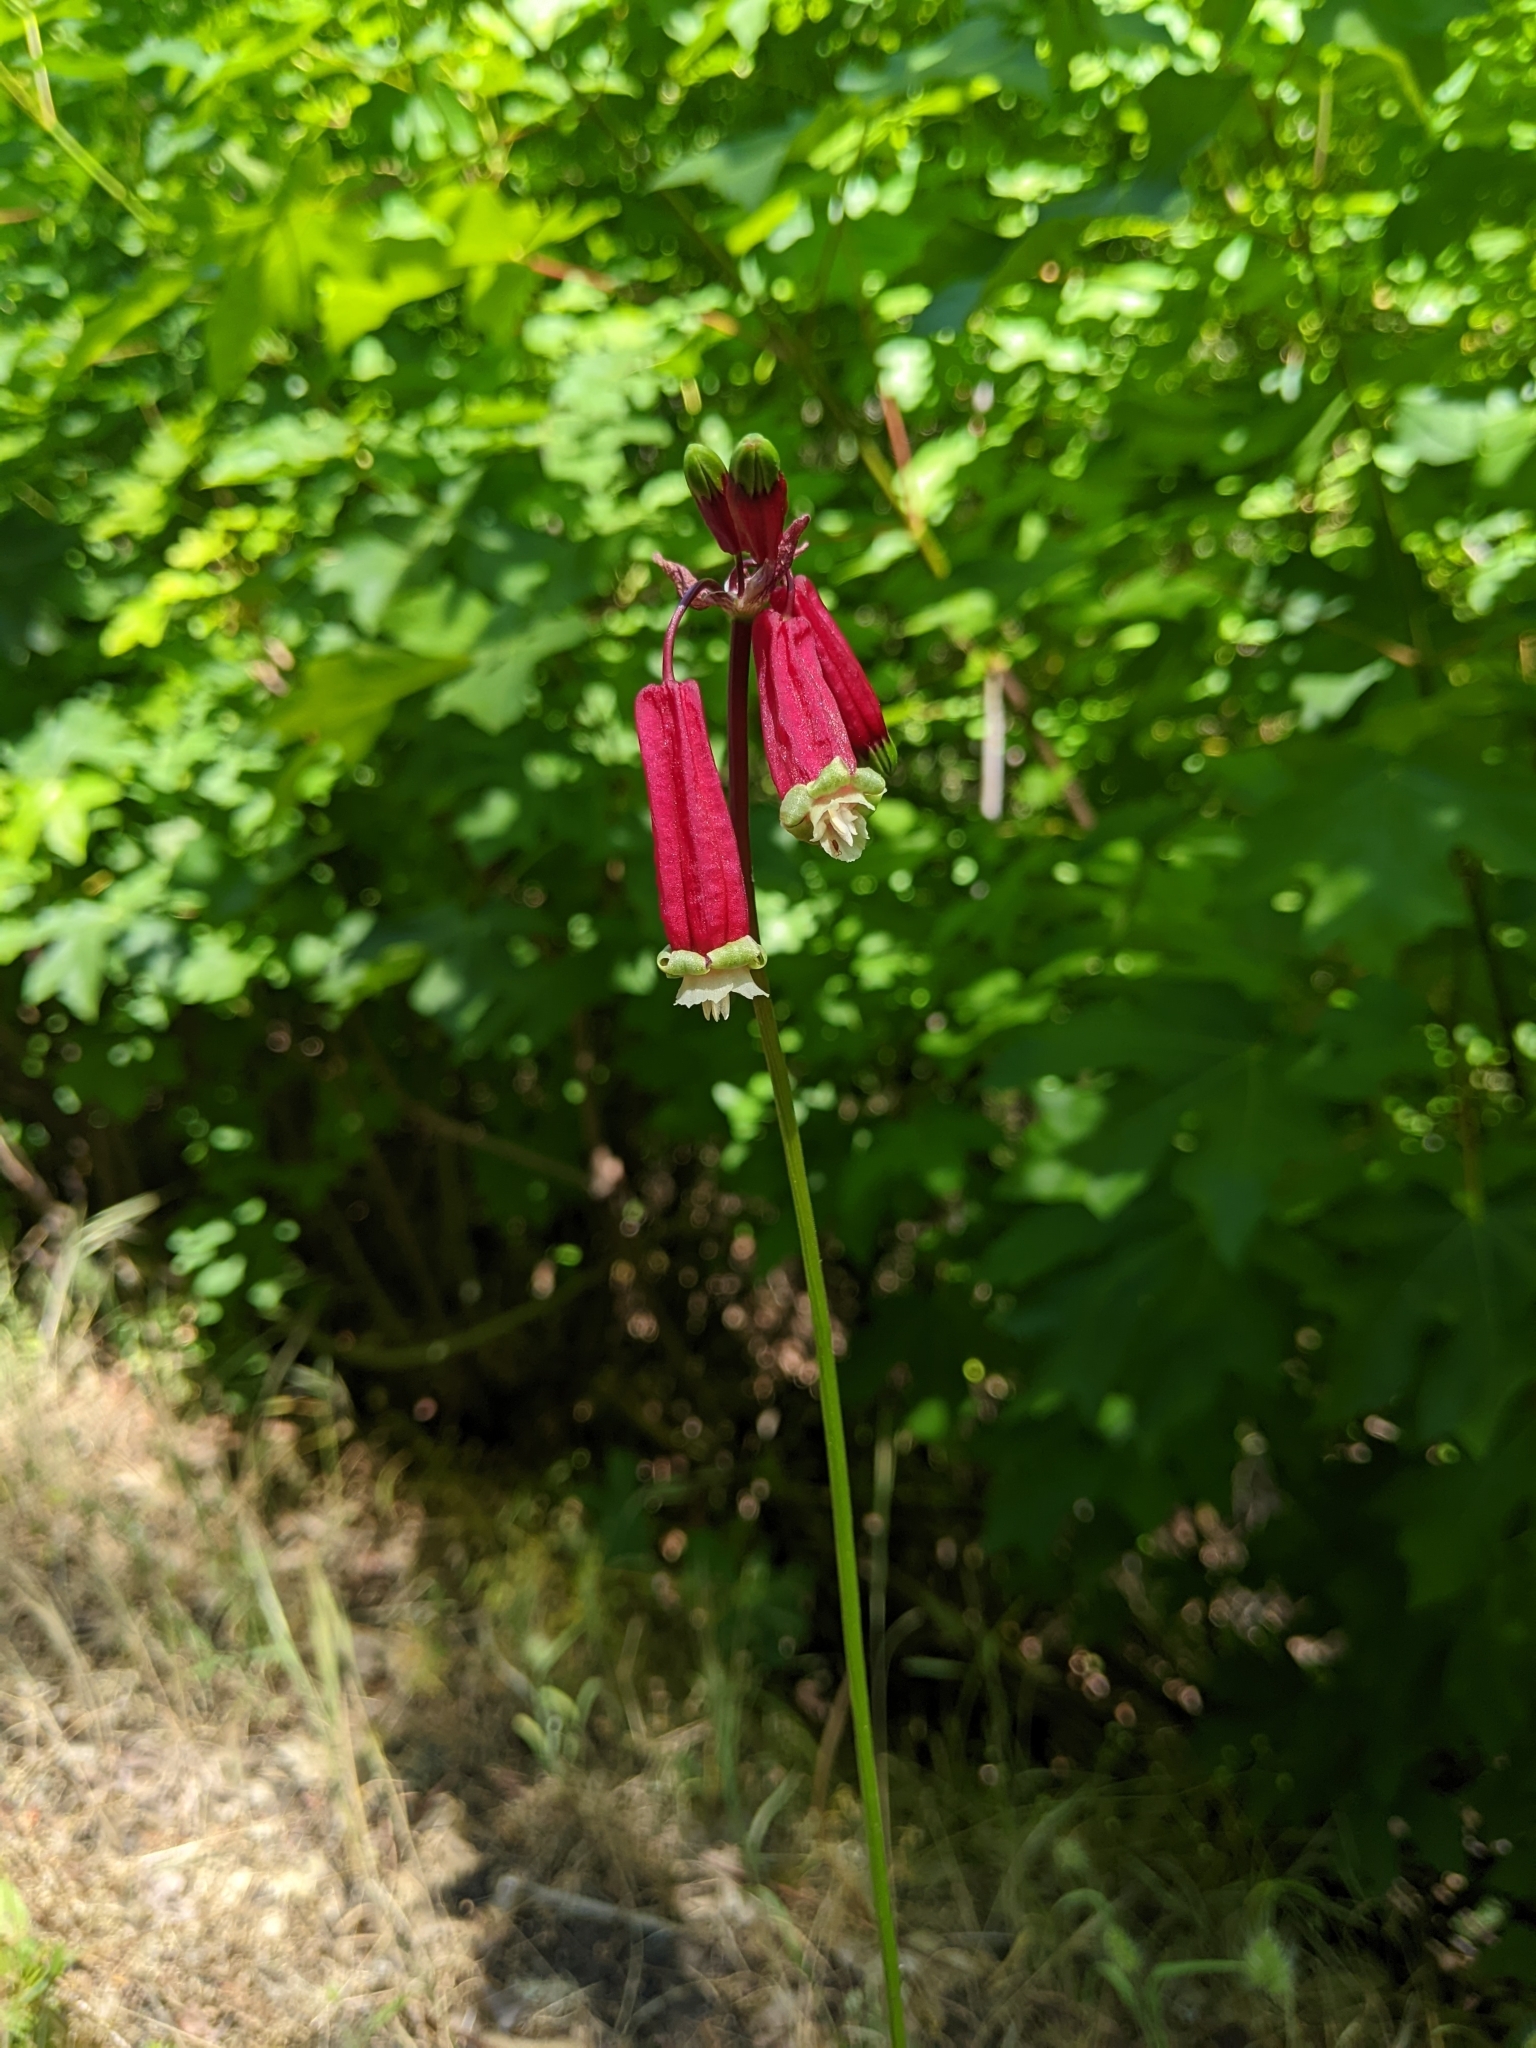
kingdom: Plantae
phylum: Tracheophyta
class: Liliopsida
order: Asparagales
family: Asparagaceae
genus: Dichelostemma
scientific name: Dichelostemma ida-maia
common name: Firecracker-flower
